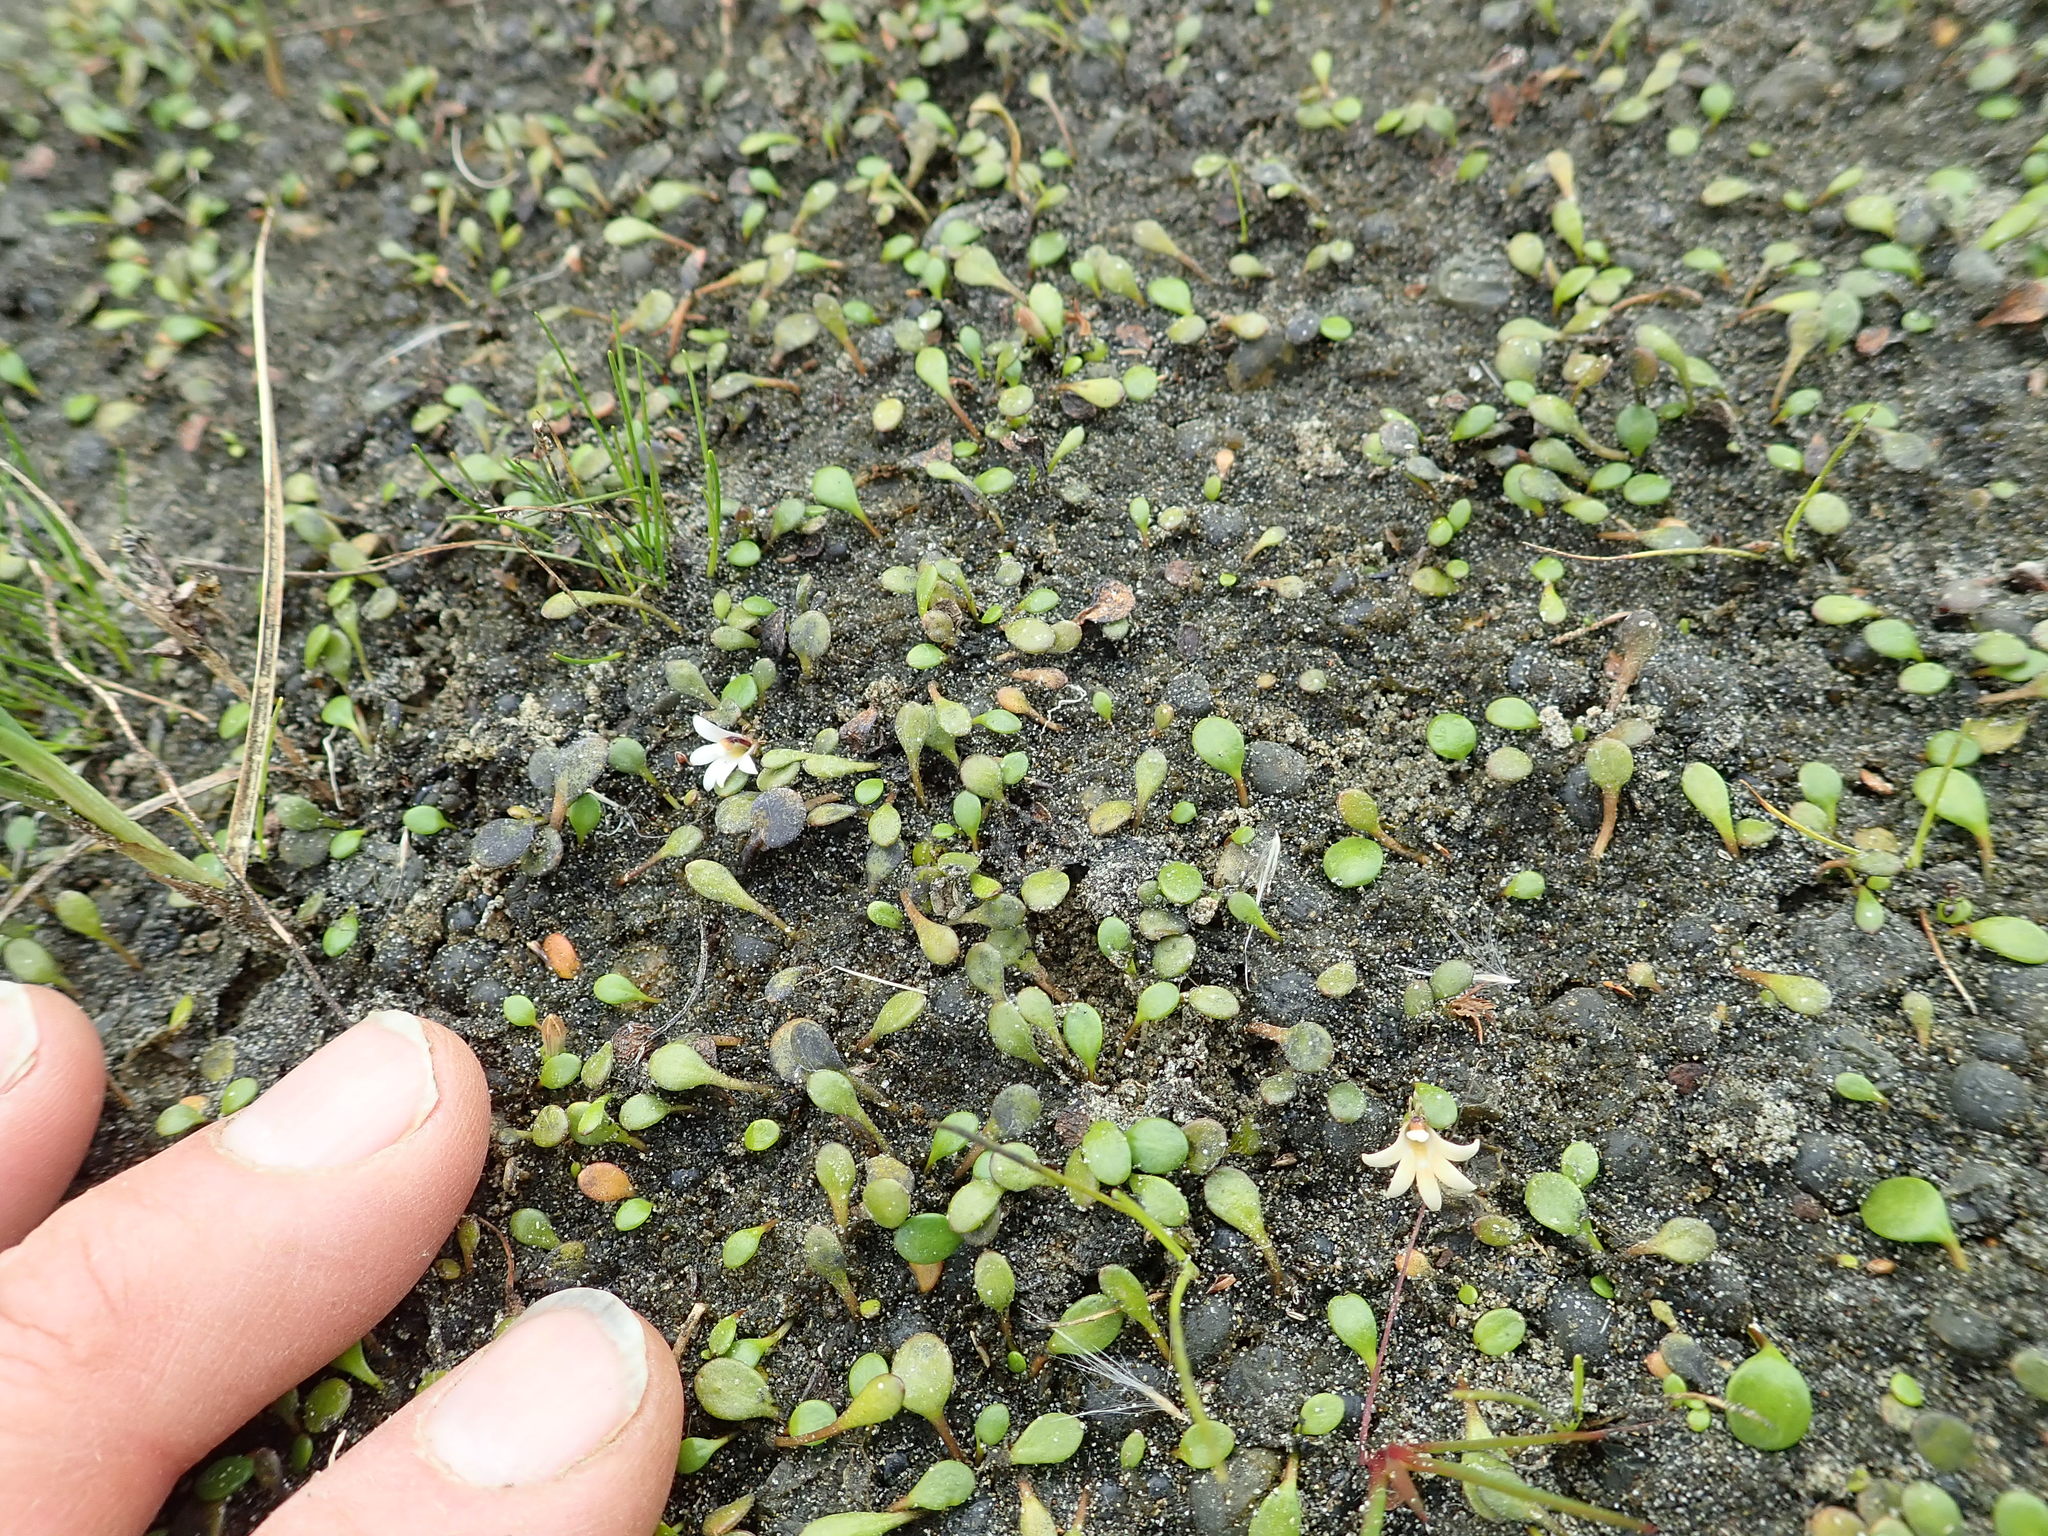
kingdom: Plantae
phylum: Tracheophyta
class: Magnoliopsida
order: Asterales
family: Goodeniaceae
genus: Goodenia
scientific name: Goodenia heenanii
